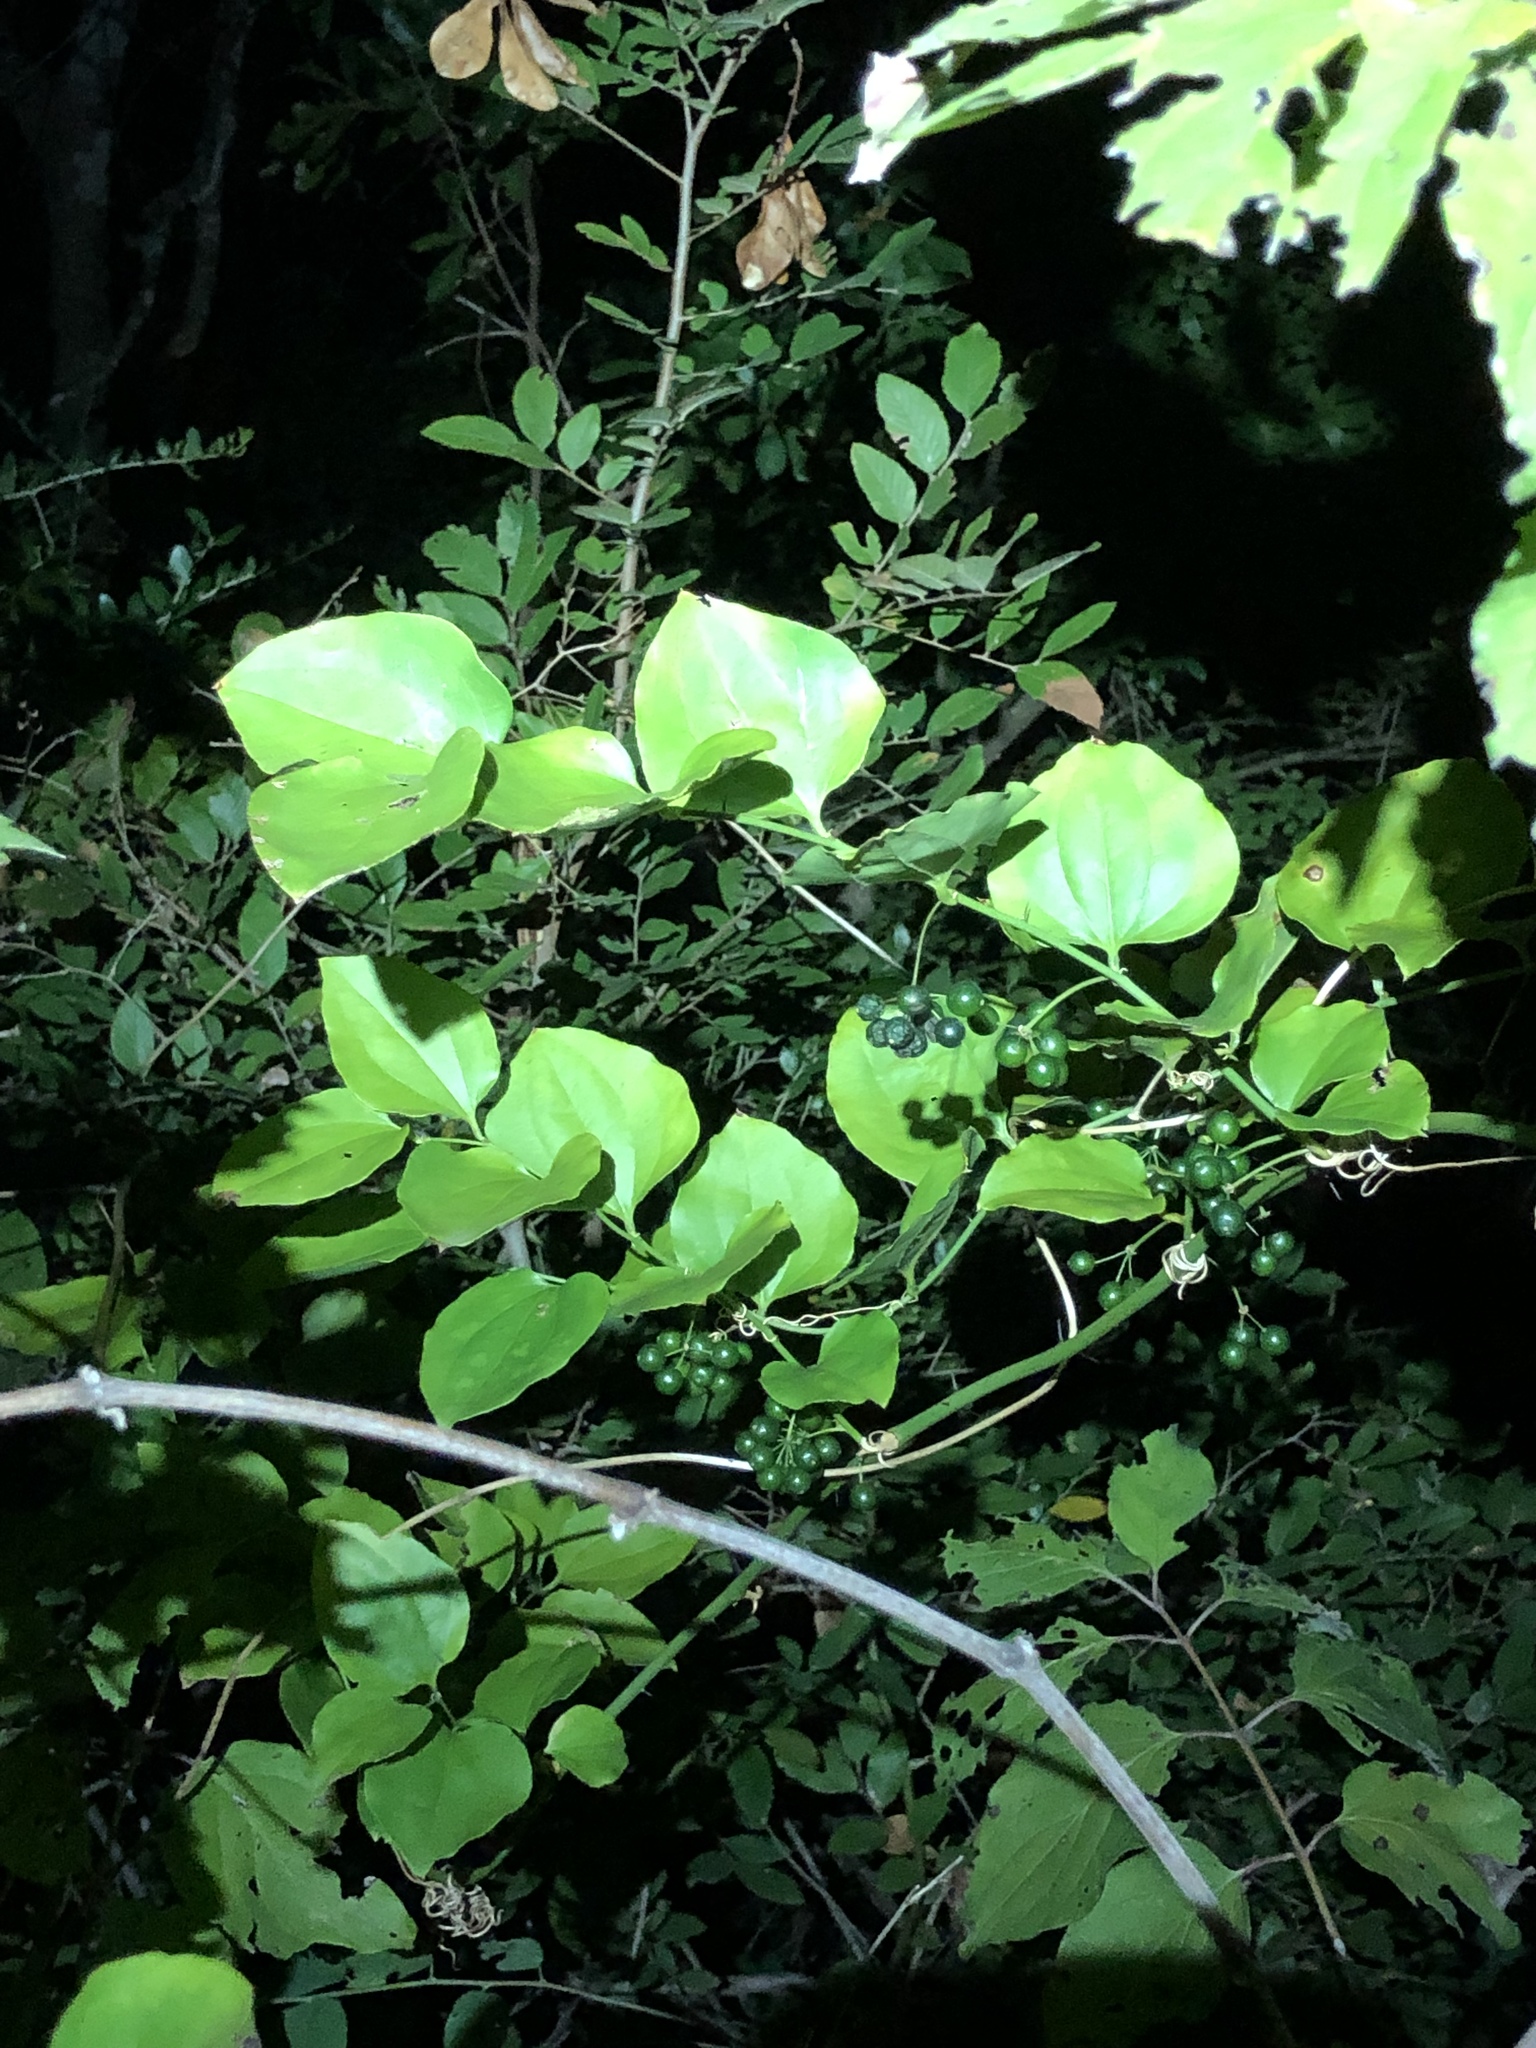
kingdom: Plantae
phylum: Tracheophyta
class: Liliopsida
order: Liliales
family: Smilacaceae
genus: Smilax
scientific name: Smilax rotundifolia
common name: Bullbriar
